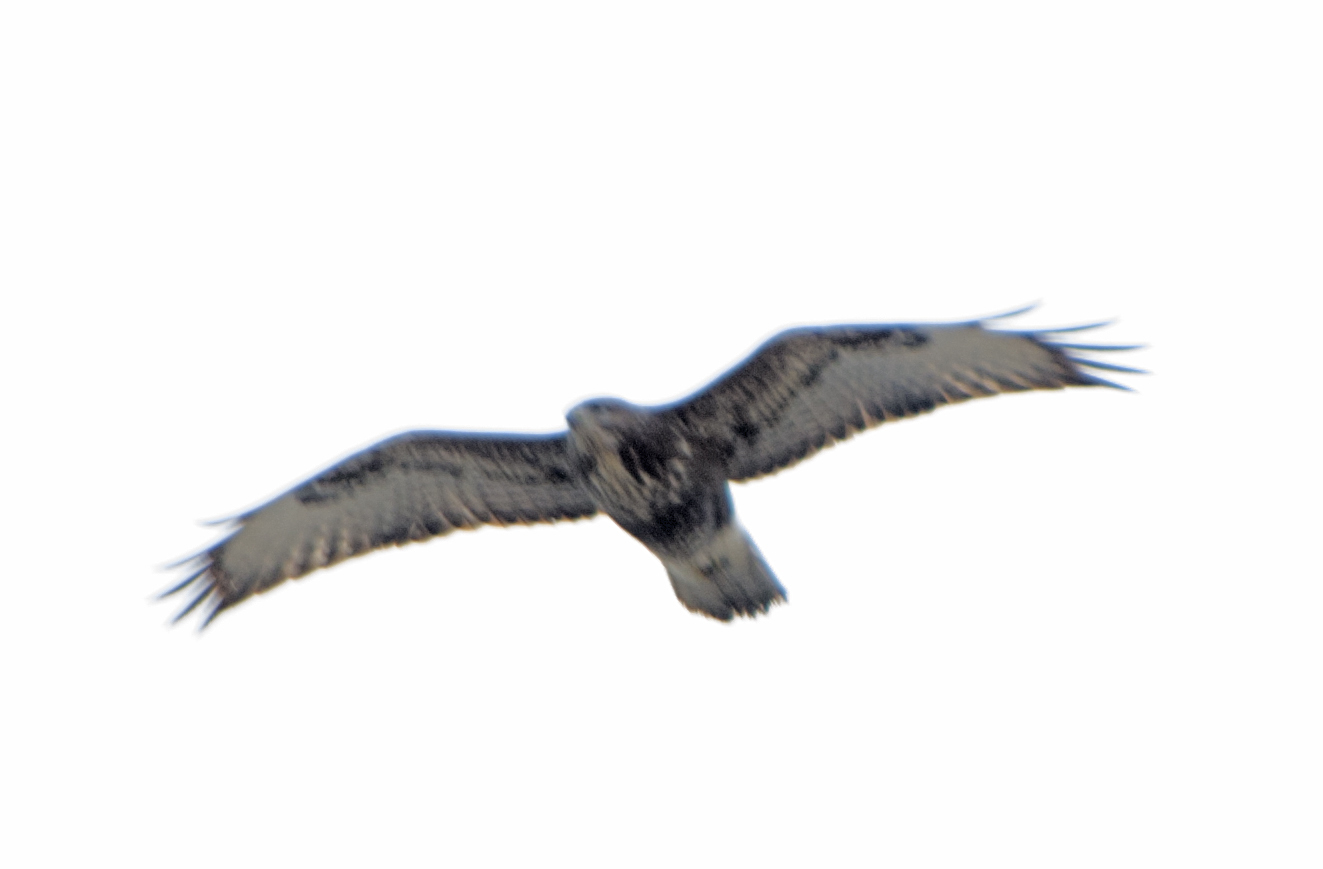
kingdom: Animalia
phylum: Chordata
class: Aves
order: Accipitriformes
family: Accipitridae
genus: Buteo
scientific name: Buteo buteo
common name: Common buzzard
